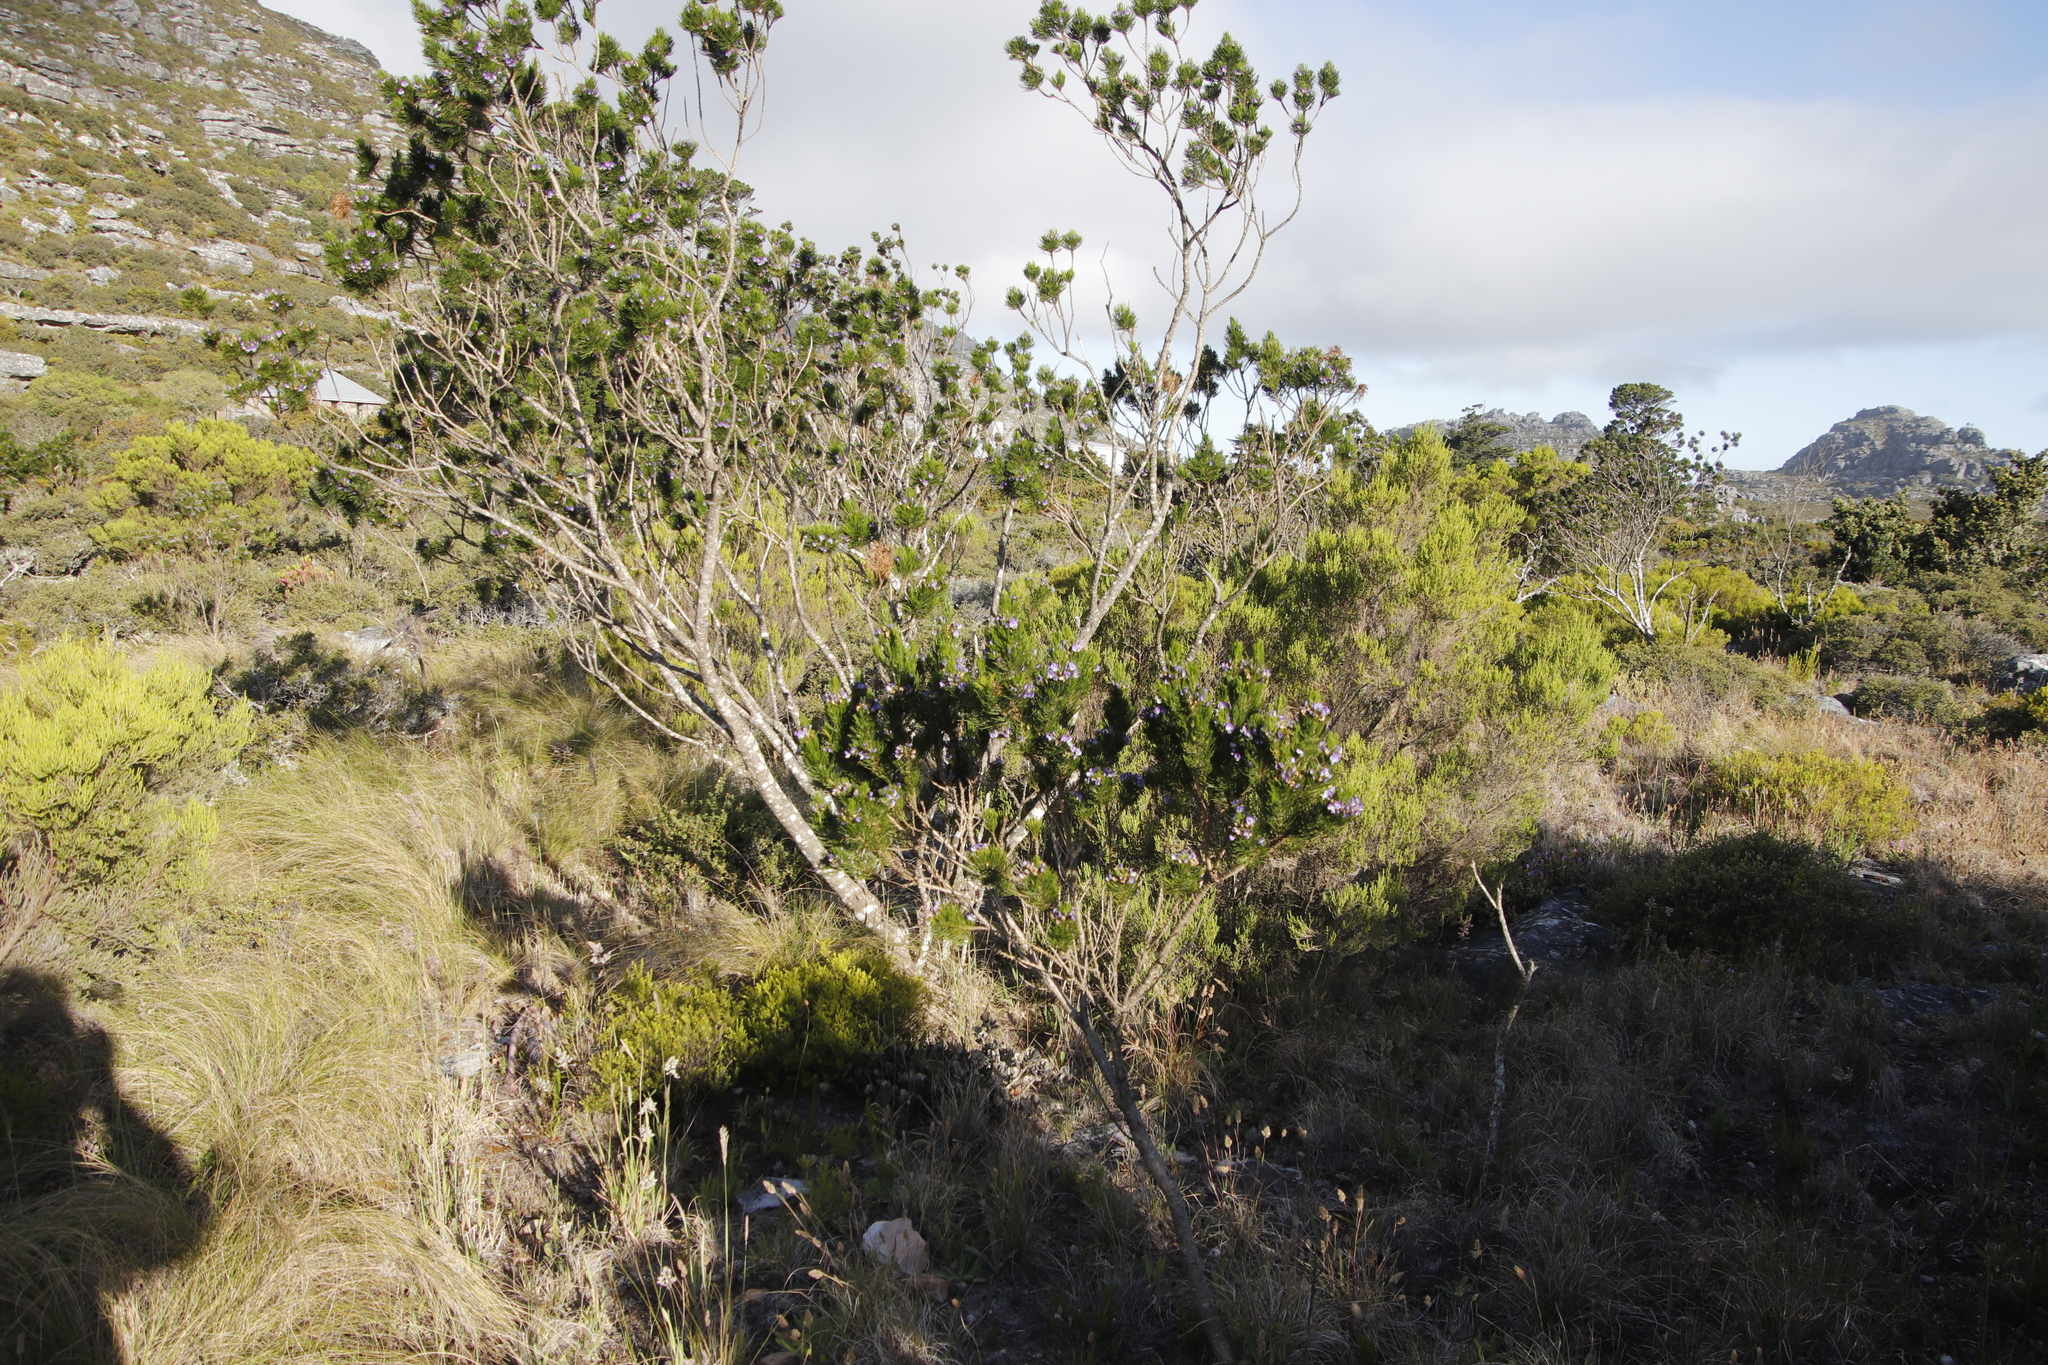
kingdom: Plantae
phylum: Tracheophyta
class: Magnoliopsida
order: Fabales
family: Fabaceae
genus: Psoralea
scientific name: Psoralea pinnata
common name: African scurfpea
